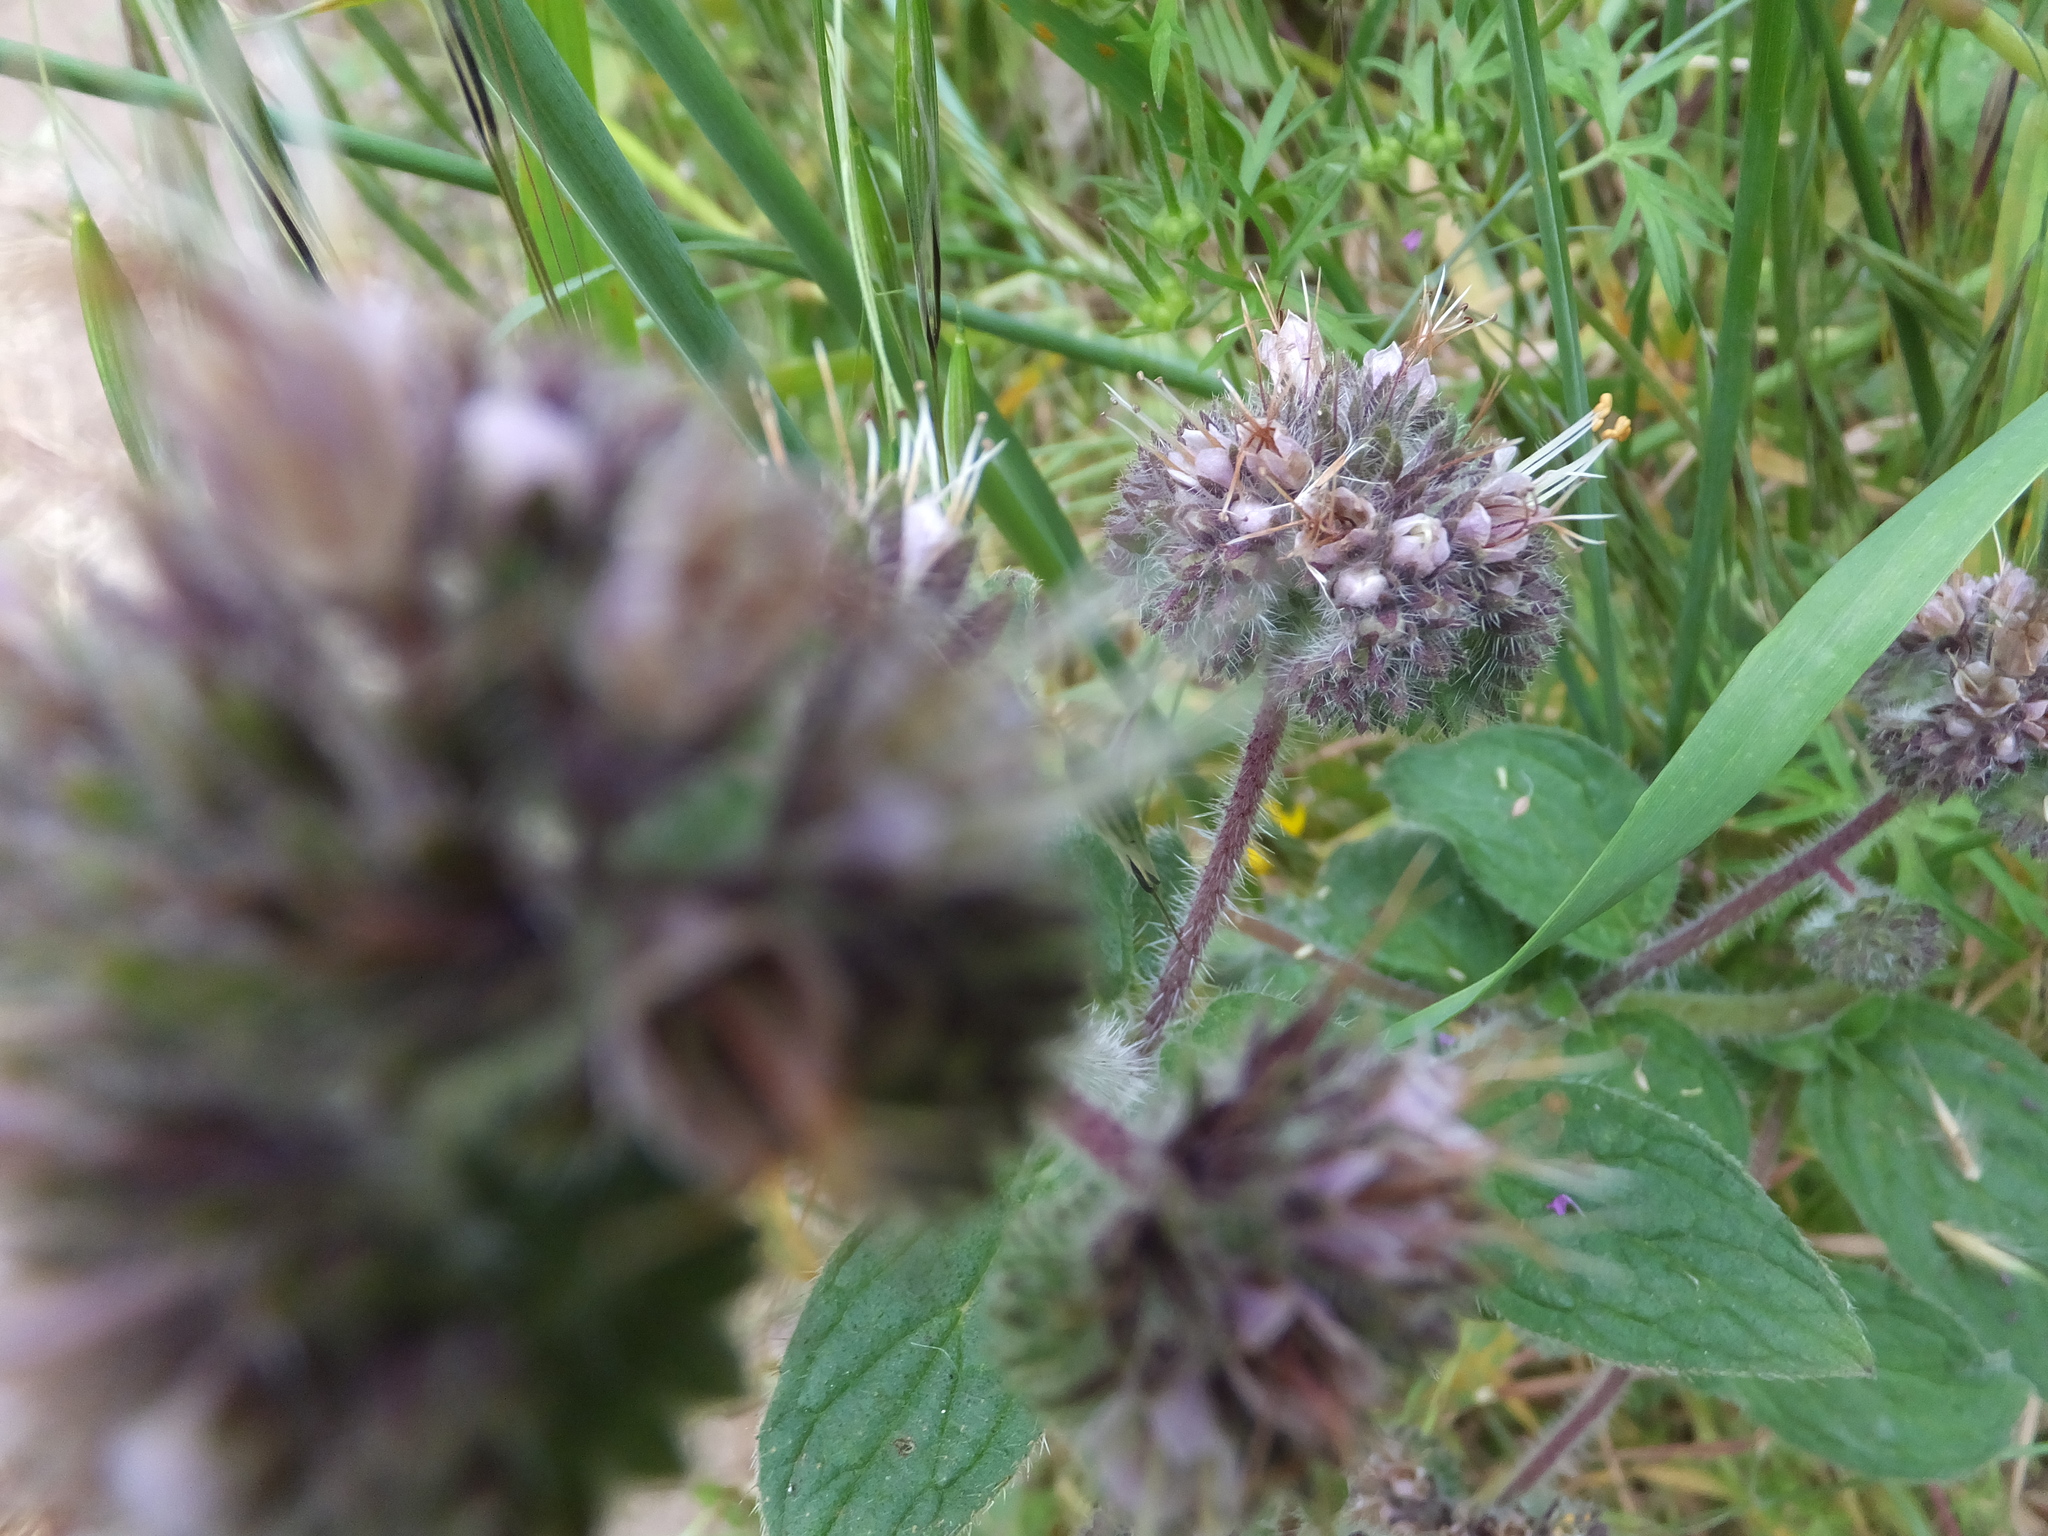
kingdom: Plantae
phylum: Tracheophyta
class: Magnoliopsida
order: Boraginales
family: Hydrophyllaceae
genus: Phacelia
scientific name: Phacelia californica
